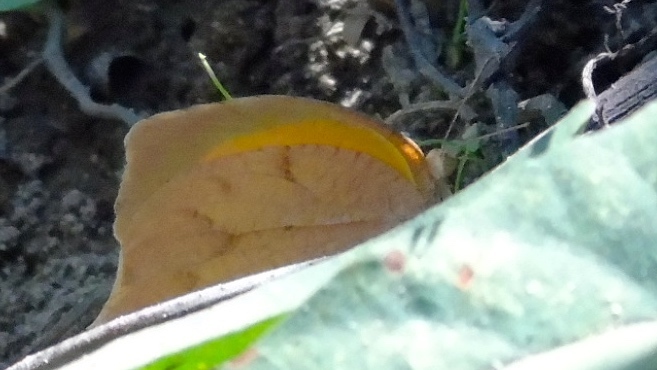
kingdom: Animalia
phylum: Arthropoda
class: Insecta
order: Lepidoptera
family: Pieridae
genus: Pyrisitia
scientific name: Pyrisitia proterpia
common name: Tailed orange
